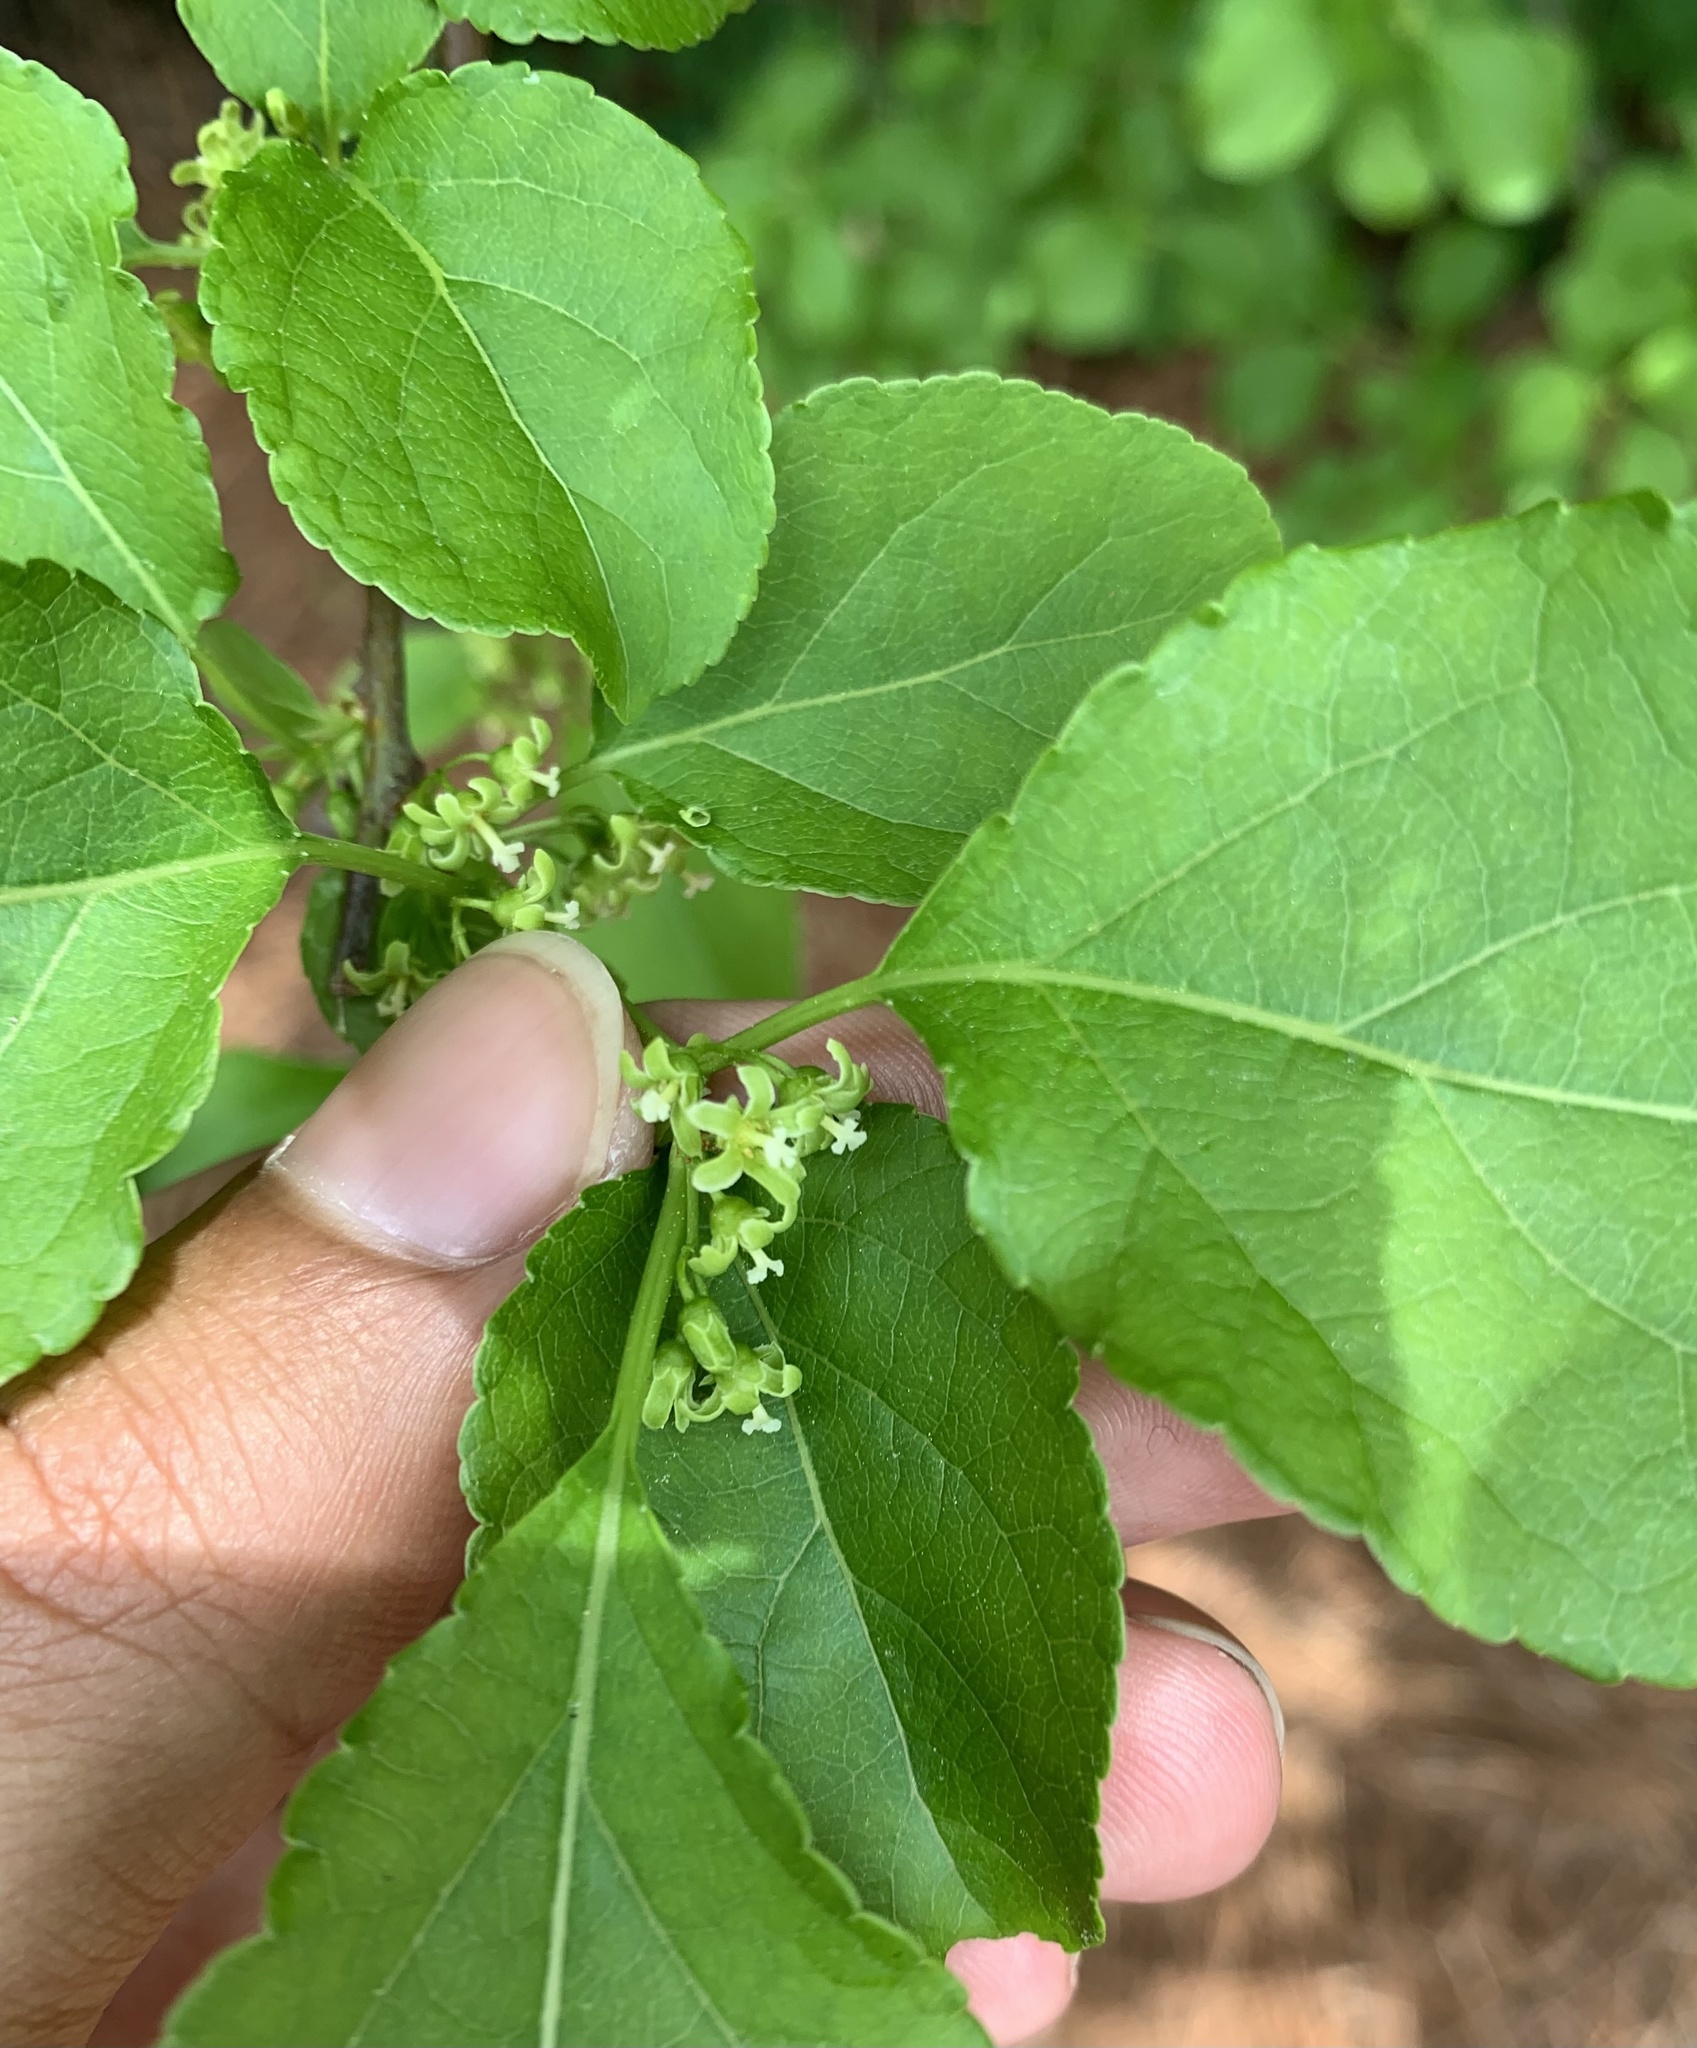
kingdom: Plantae
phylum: Tracheophyta
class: Magnoliopsida
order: Celastrales
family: Celastraceae
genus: Celastrus
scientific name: Celastrus orbiculatus
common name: Oriental bittersweet
